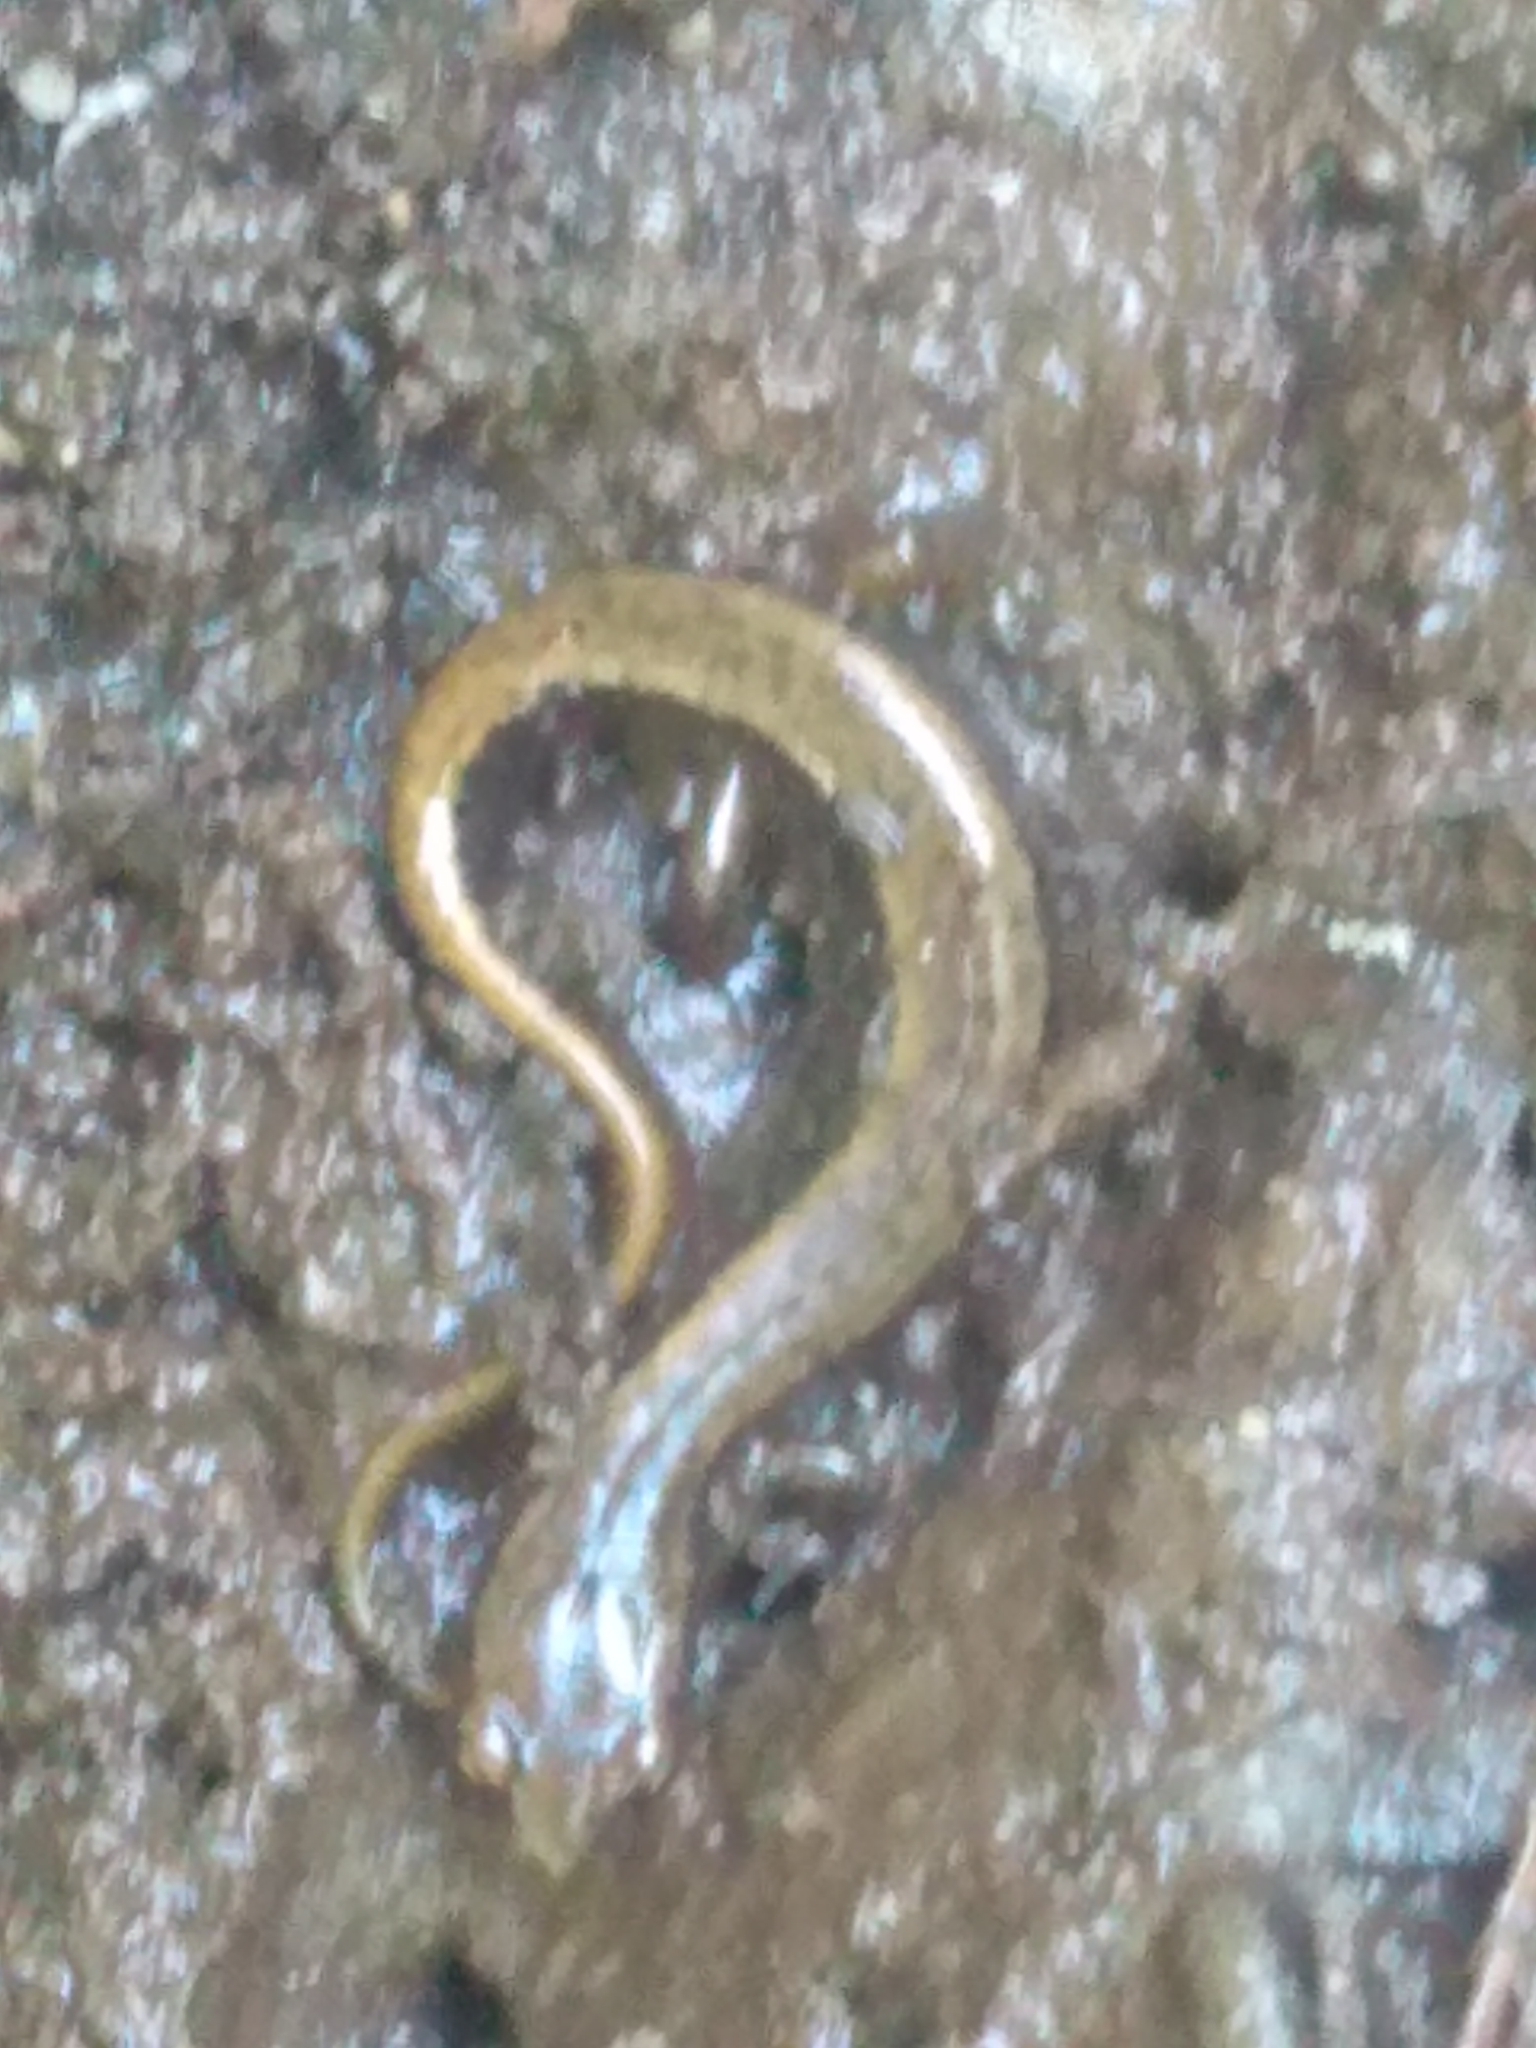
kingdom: Animalia
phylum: Chordata
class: Amphibia
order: Caudata
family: Plethodontidae
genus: Eurycea
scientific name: Eurycea bislineata
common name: Northern two-lined salamander
